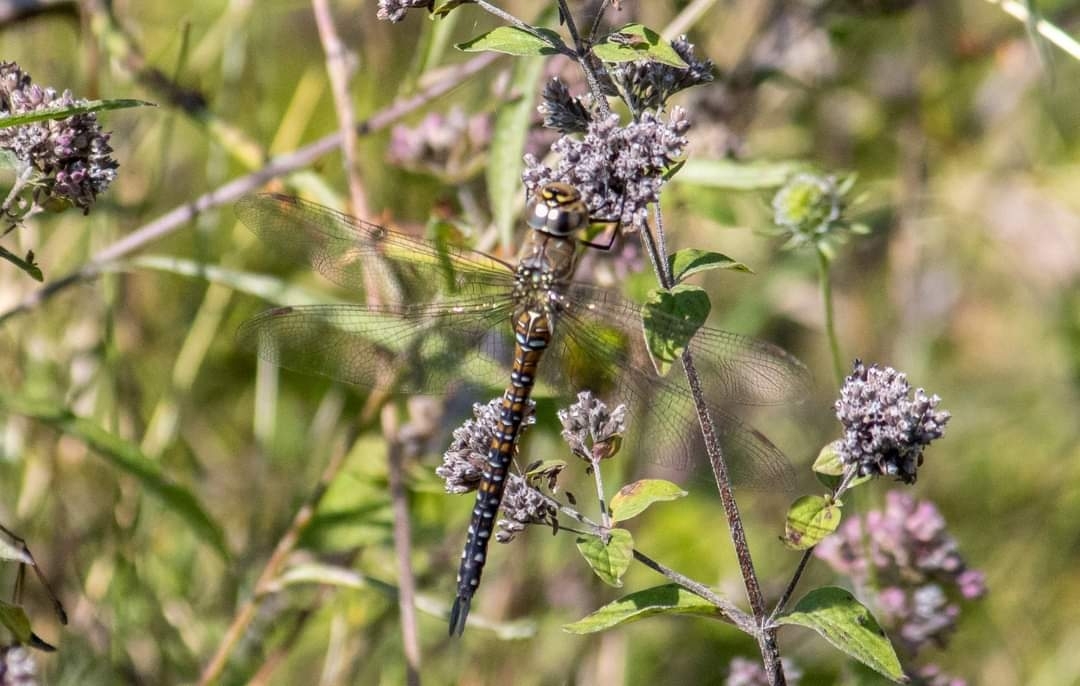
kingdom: Animalia
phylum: Arthropoda
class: Insecta
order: Odonata
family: Aeshnidae
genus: Aeshna
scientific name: Aeshna mixta
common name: Migrant hawker
